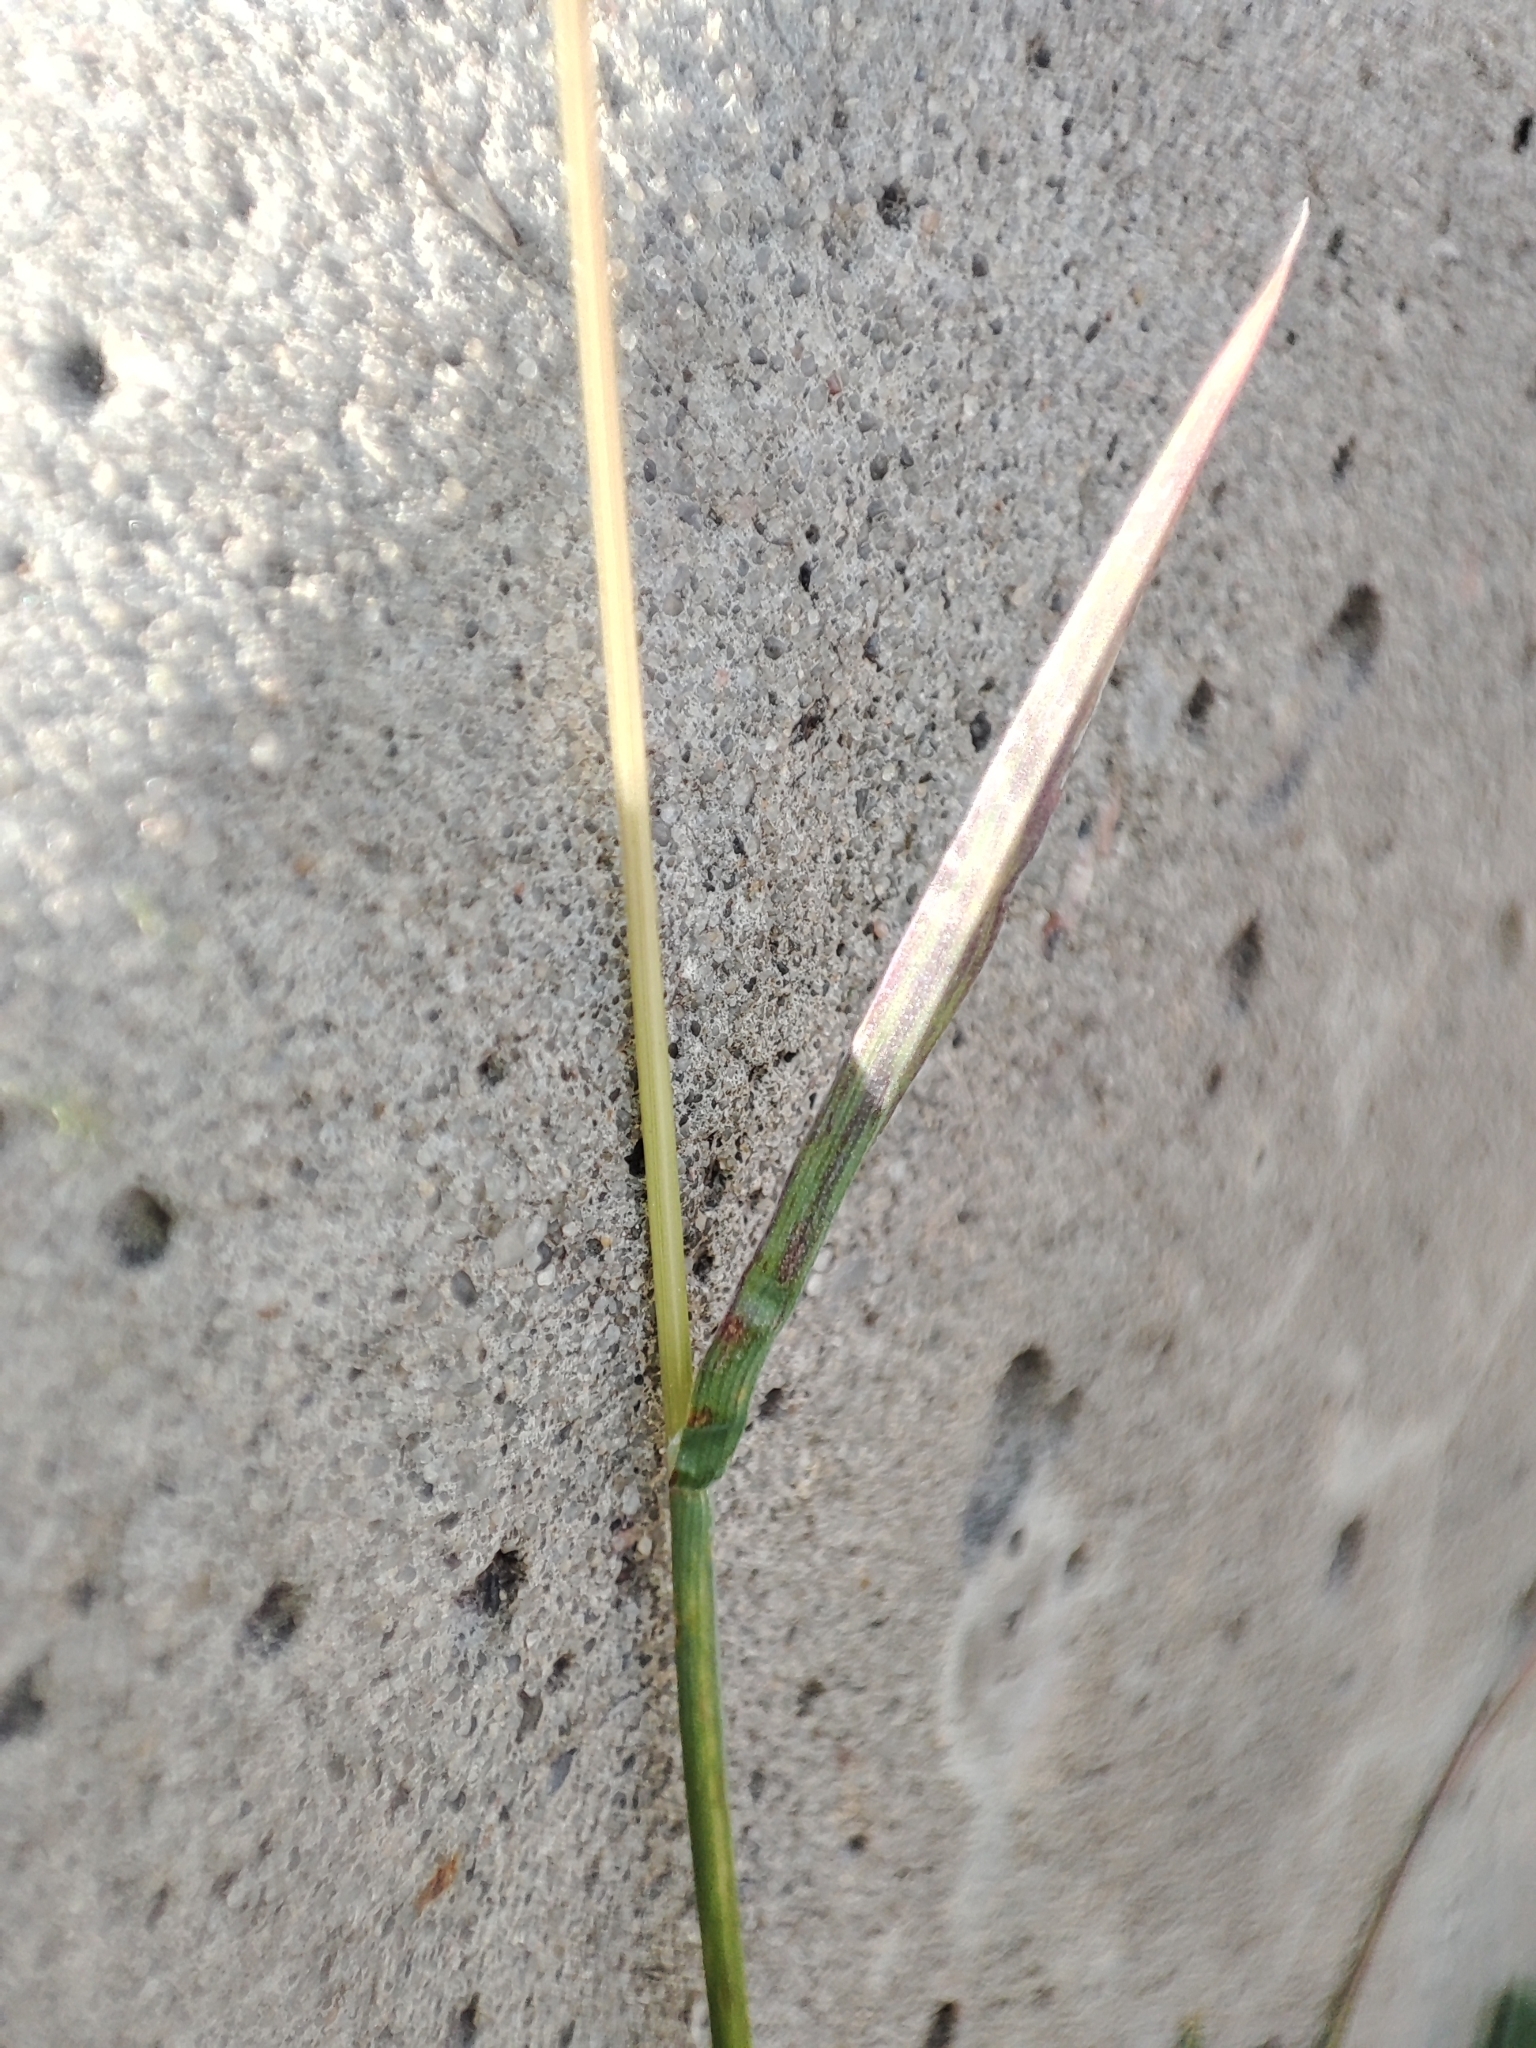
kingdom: Plantae
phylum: Tracheophyta
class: Liliopsida
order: Poales
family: Poaceae
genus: Poa
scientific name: Poa bulbosa
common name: Bulbous bluegrass
